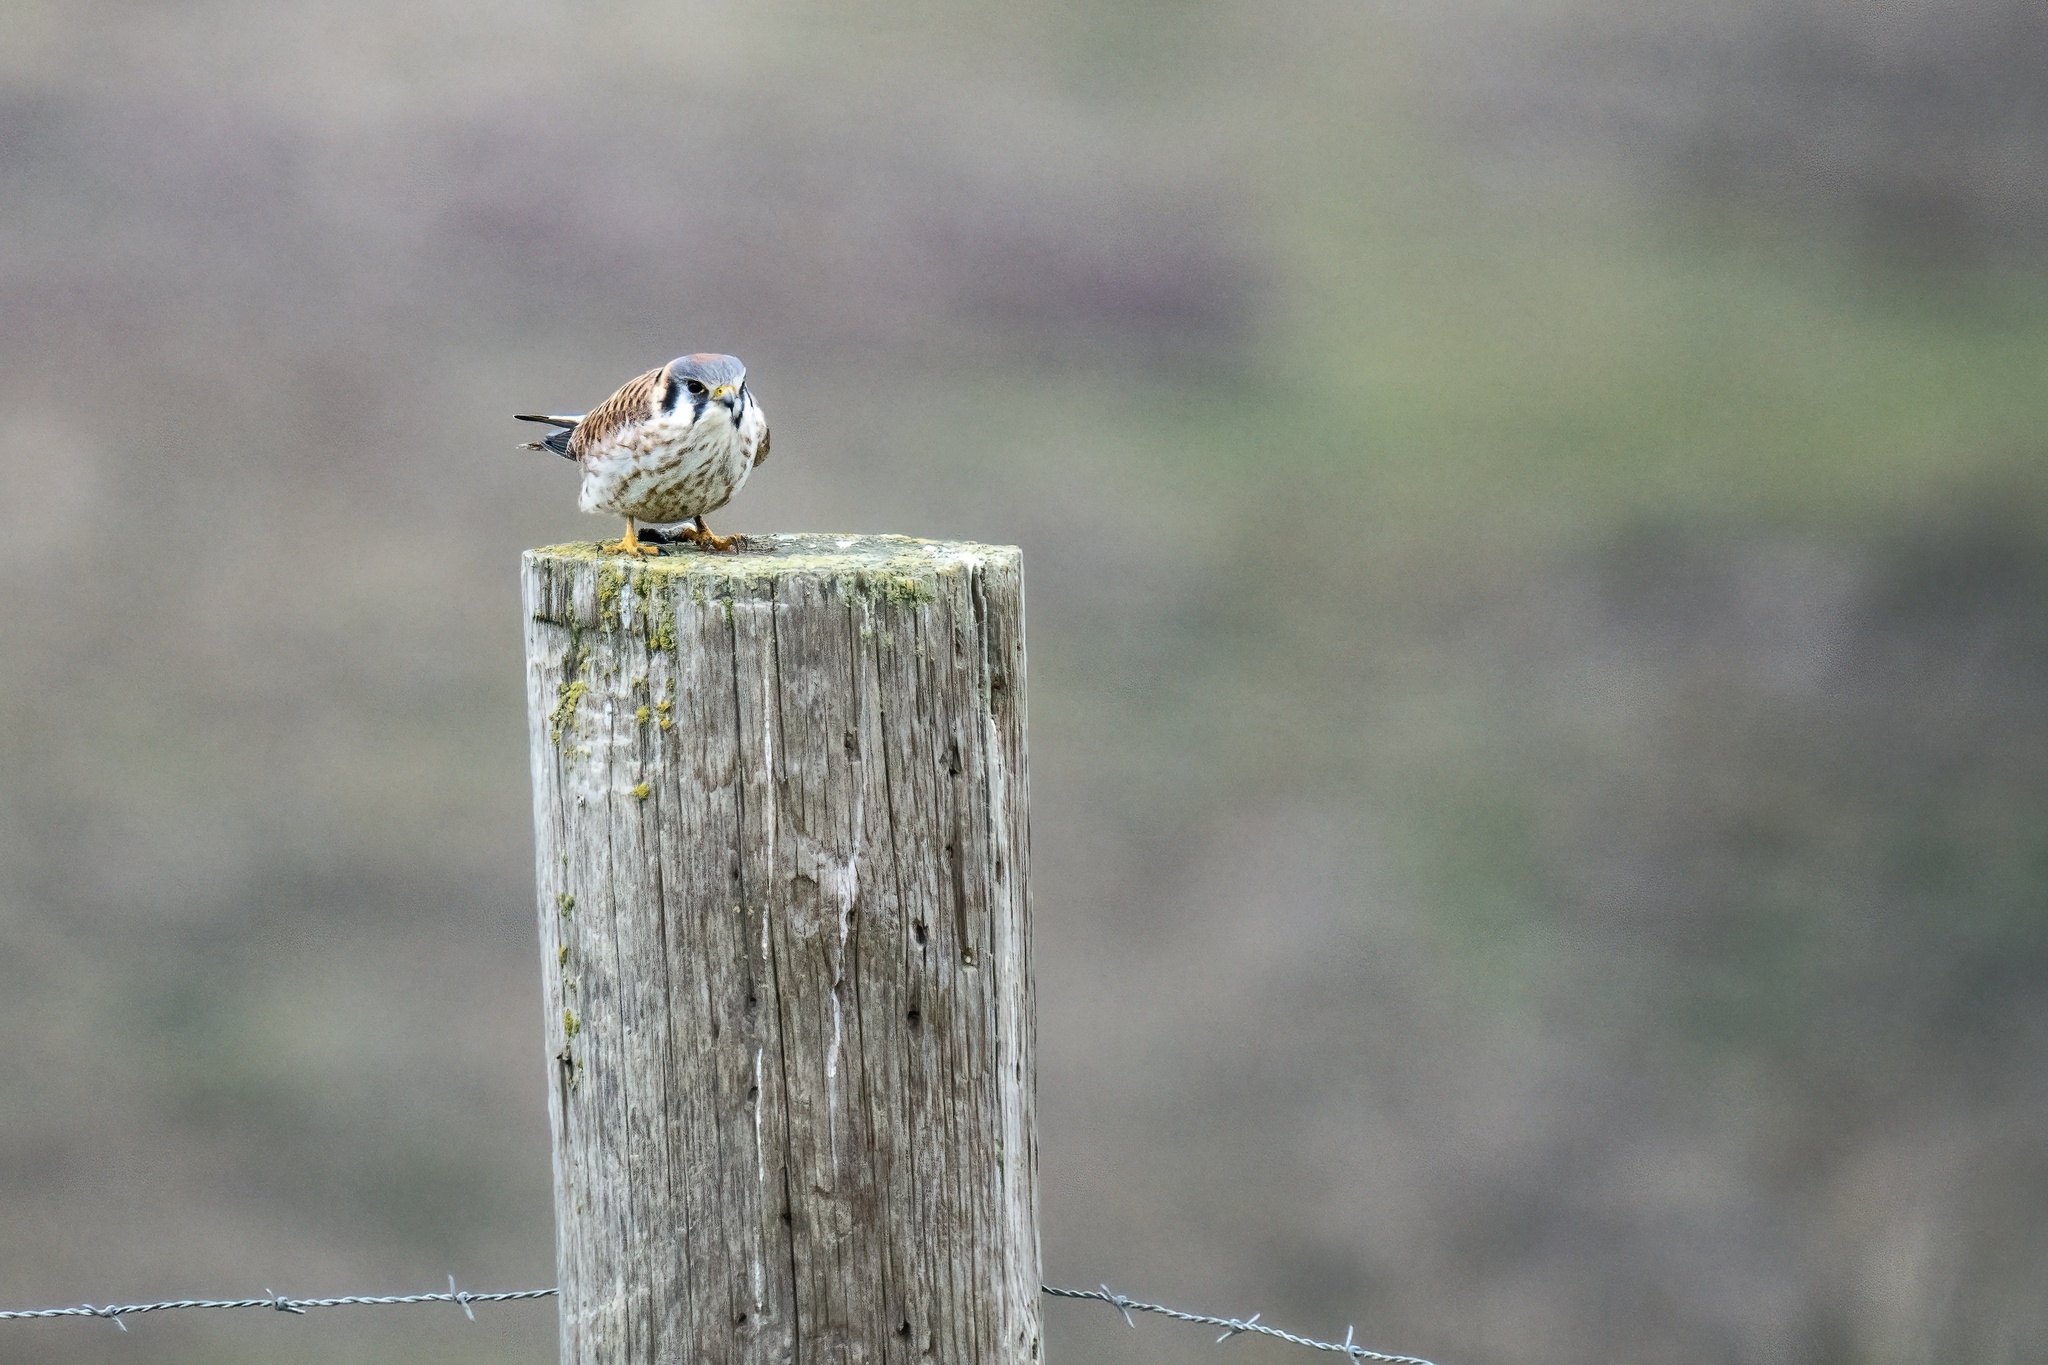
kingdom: Animalia
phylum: Chordata
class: Aves
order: Falconiformes
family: Falconidae
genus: Falco
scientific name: Falco sparverius
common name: American kestrel
